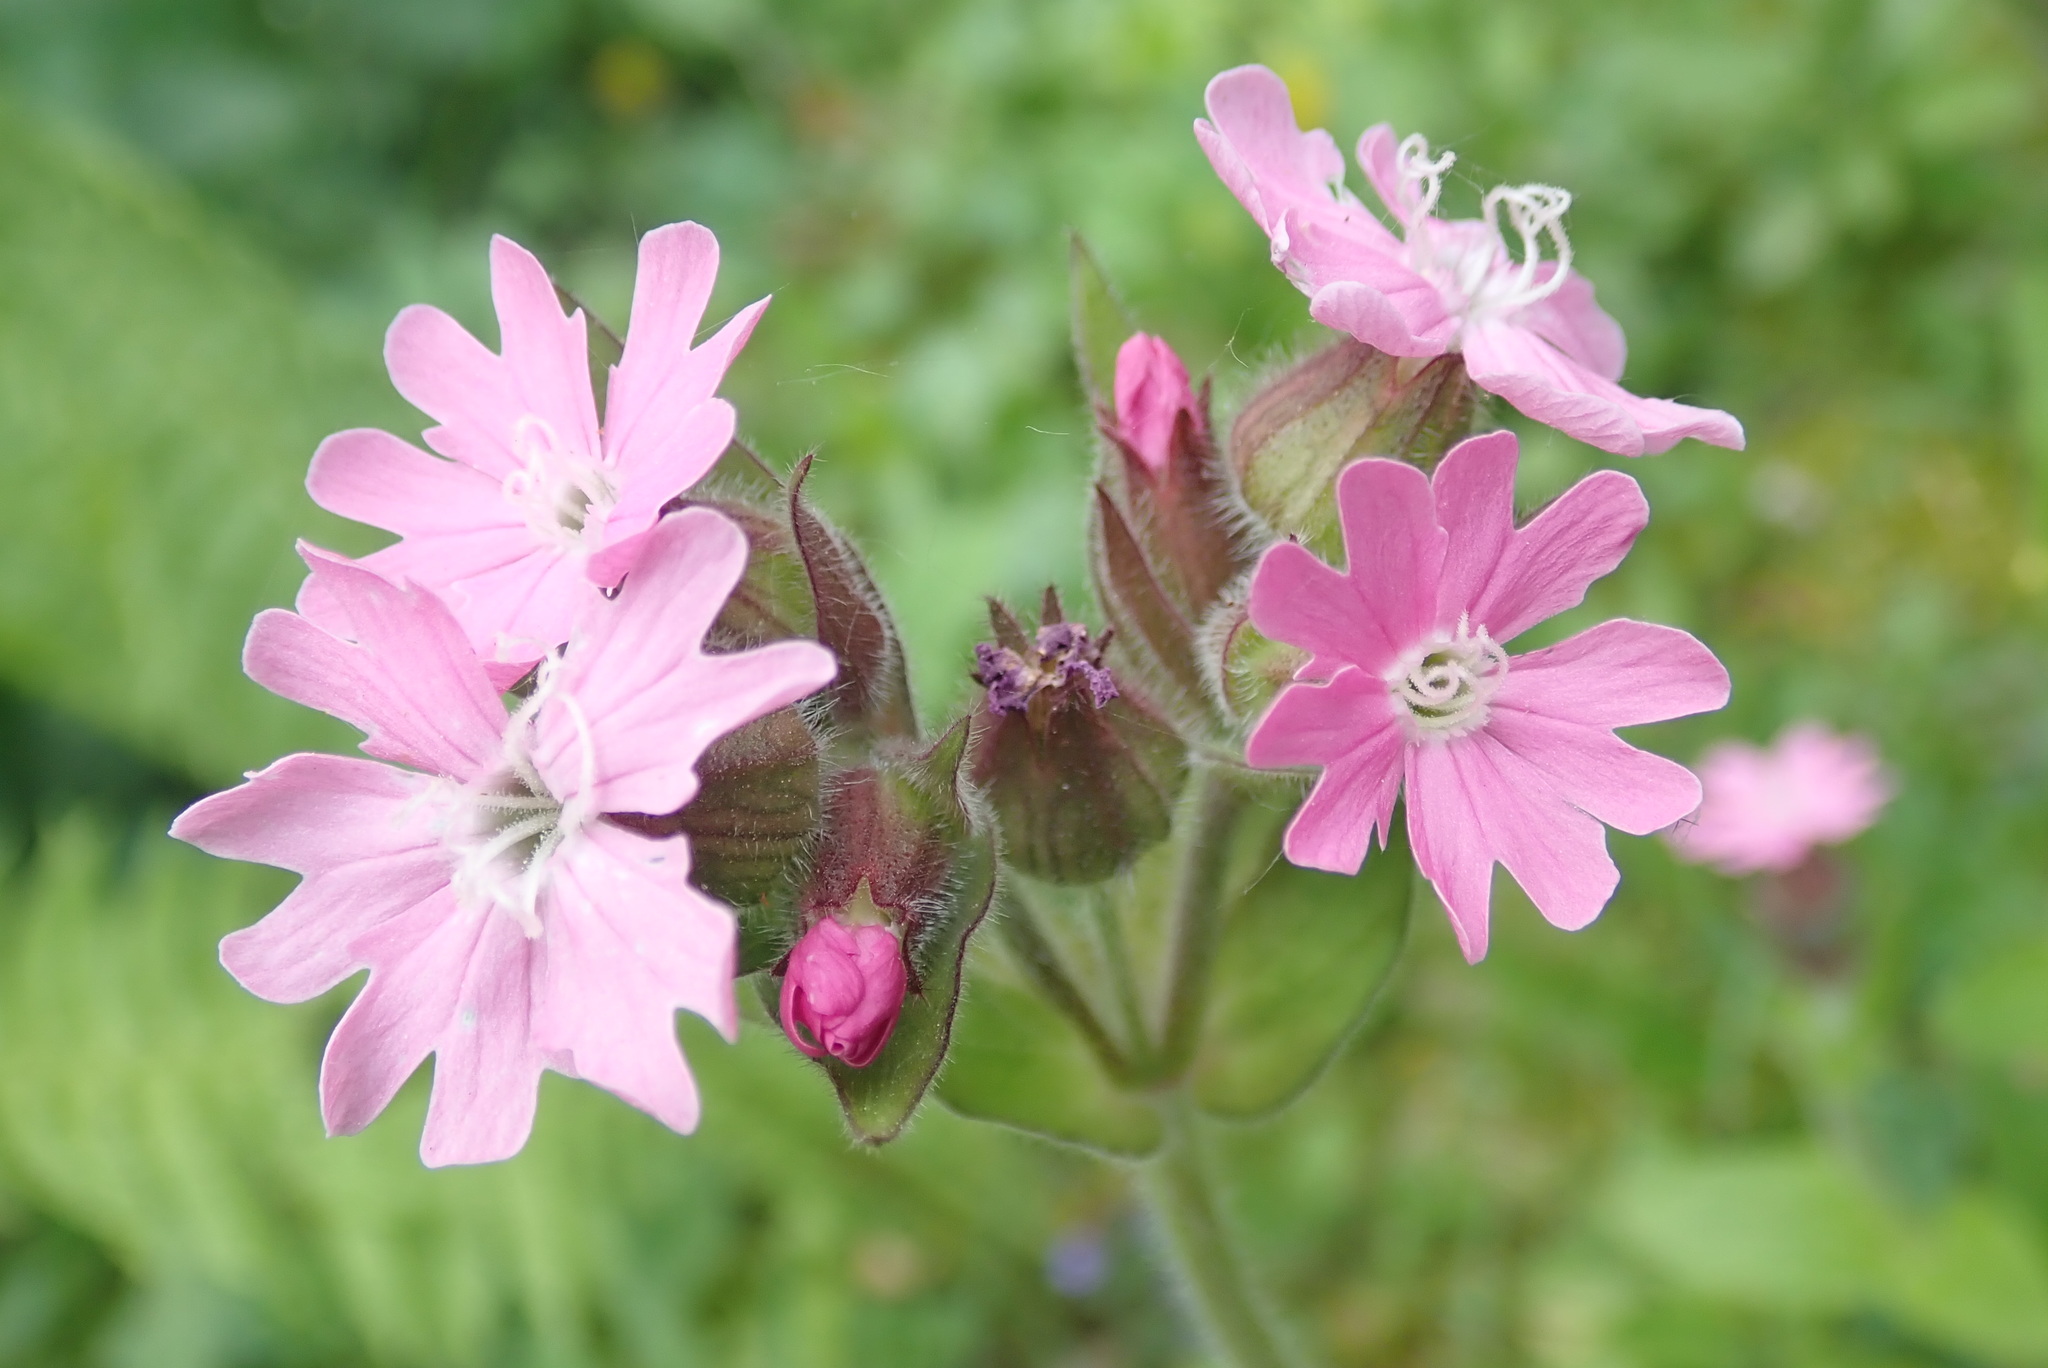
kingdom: Plantae
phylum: Tracheophyta
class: Magnoliopsida
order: Caryophyllales
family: Caryophyllaceae
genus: Silene
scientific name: Silene dioica
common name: Red campion
